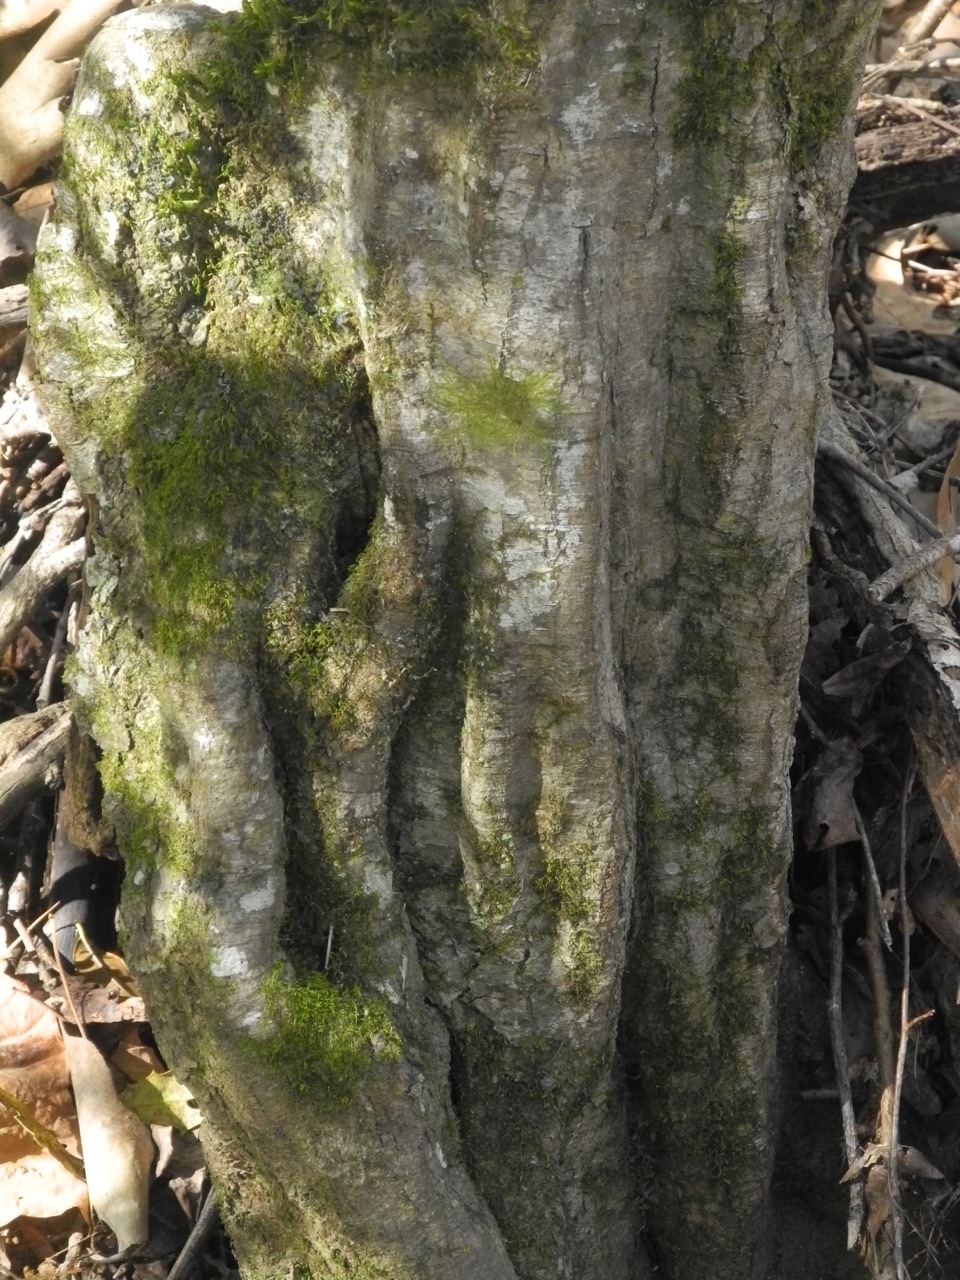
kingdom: Plantae
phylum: Tracheophyta
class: Magnoliopsida
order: Fagales
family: Betulaceae
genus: Carpinus
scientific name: Carpinus caroliniana
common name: American hornbeam
